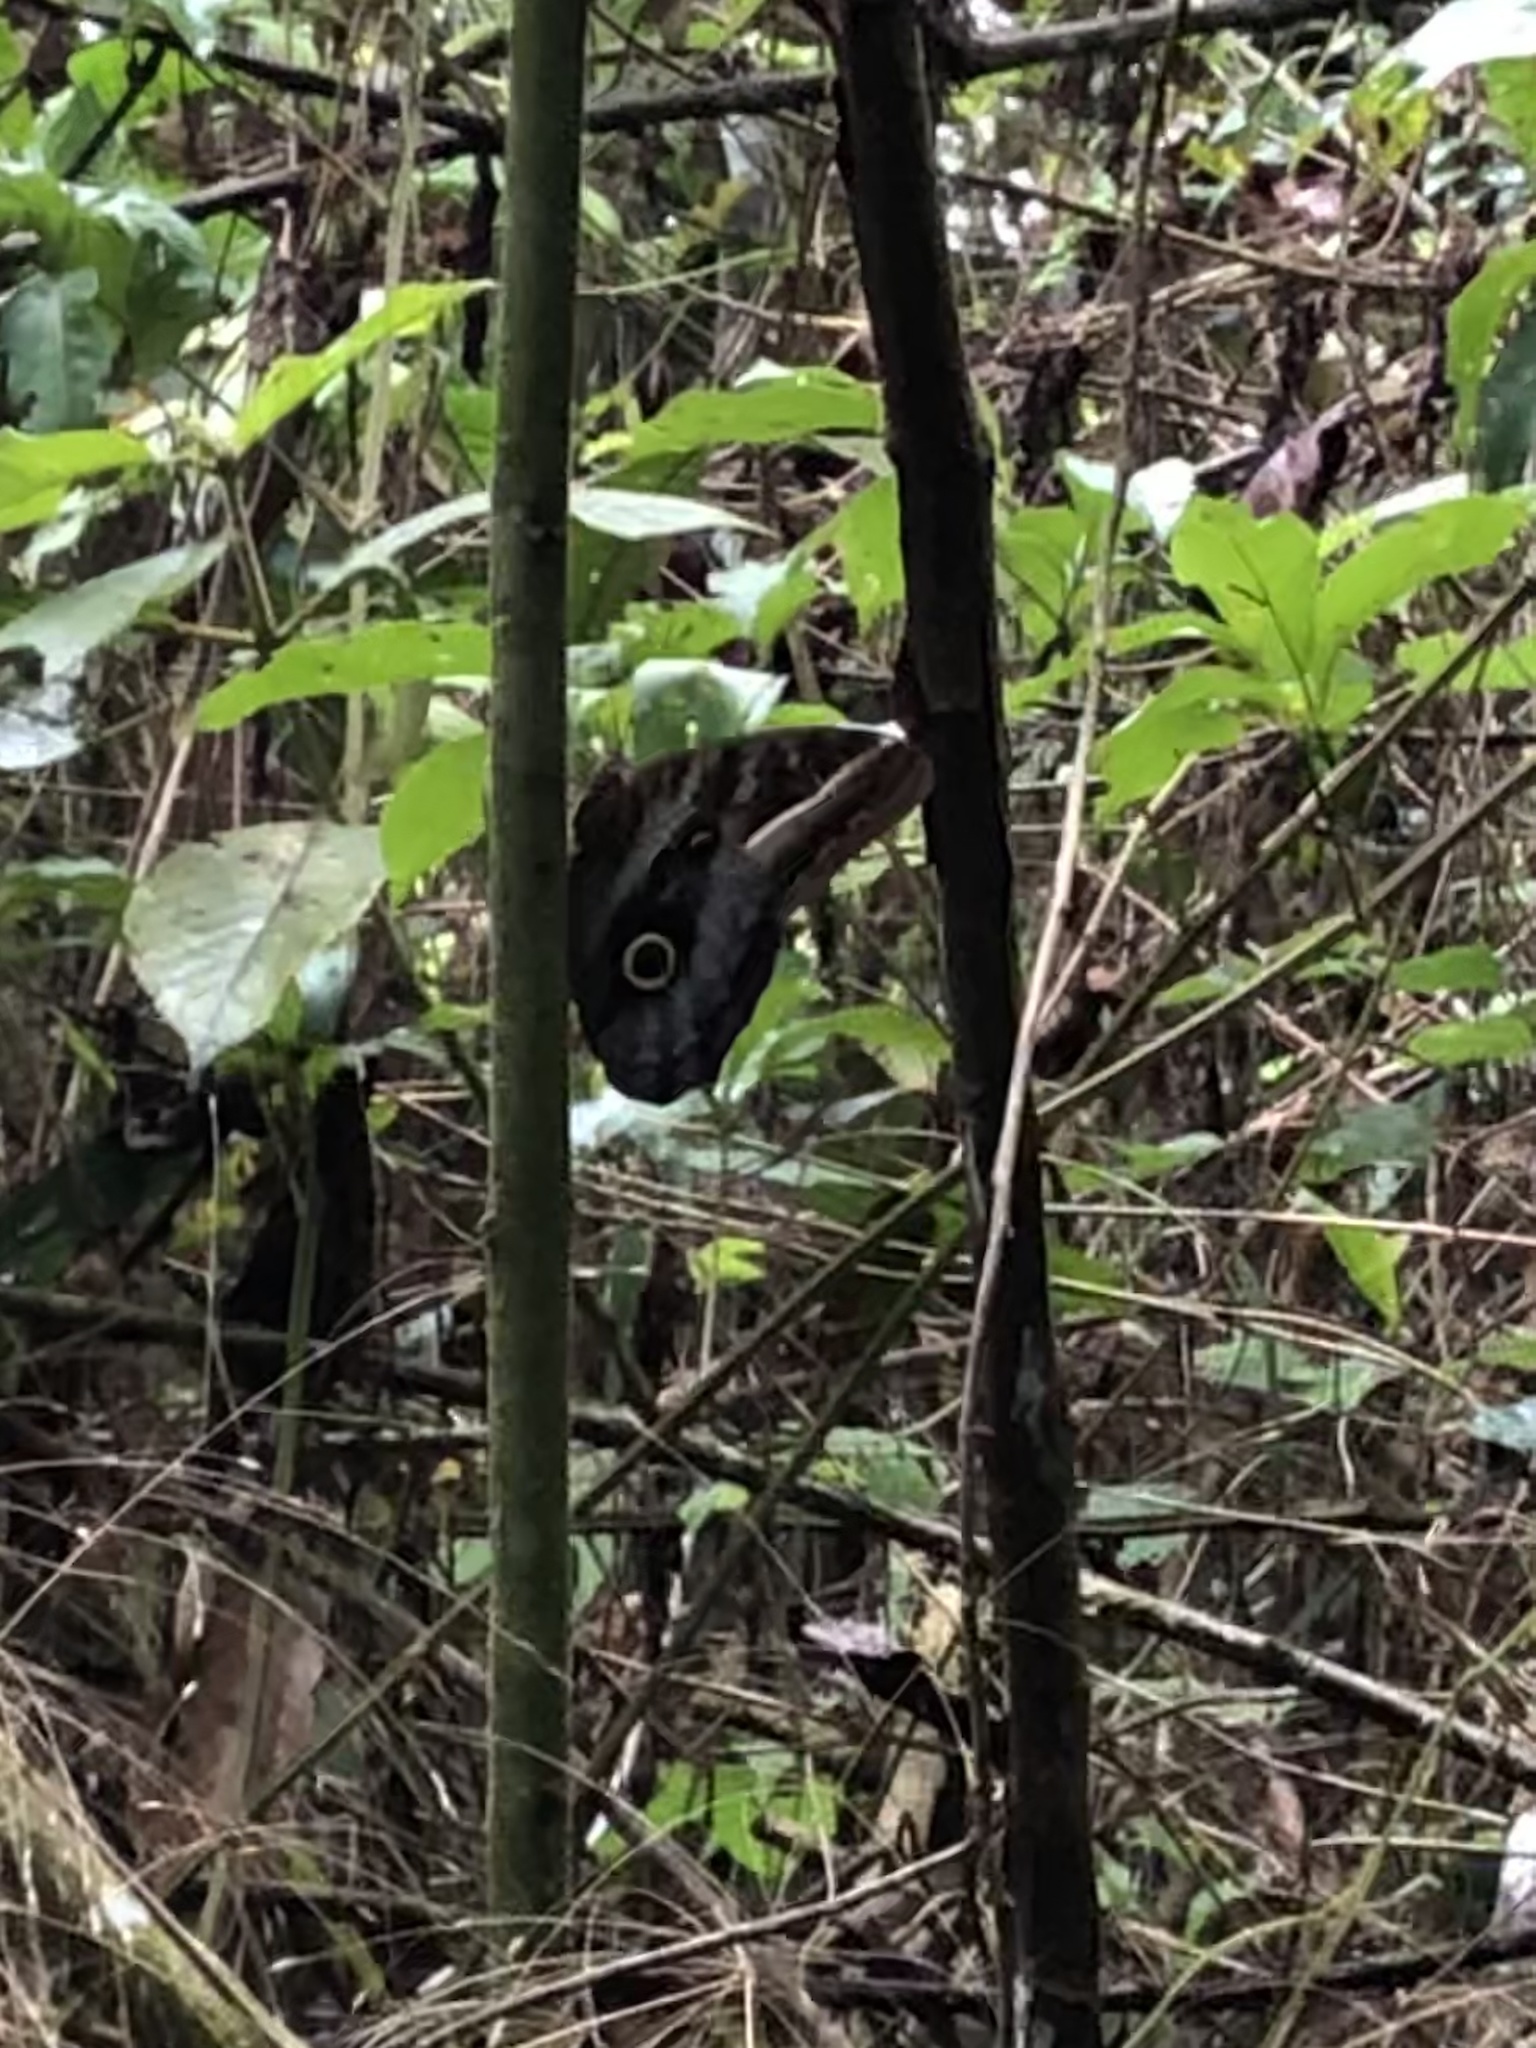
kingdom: Animalia
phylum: Arthropoda
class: Insecta
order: Lepidoptera
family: Nymphalidae
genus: Caligo
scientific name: Caligo euphorbus
